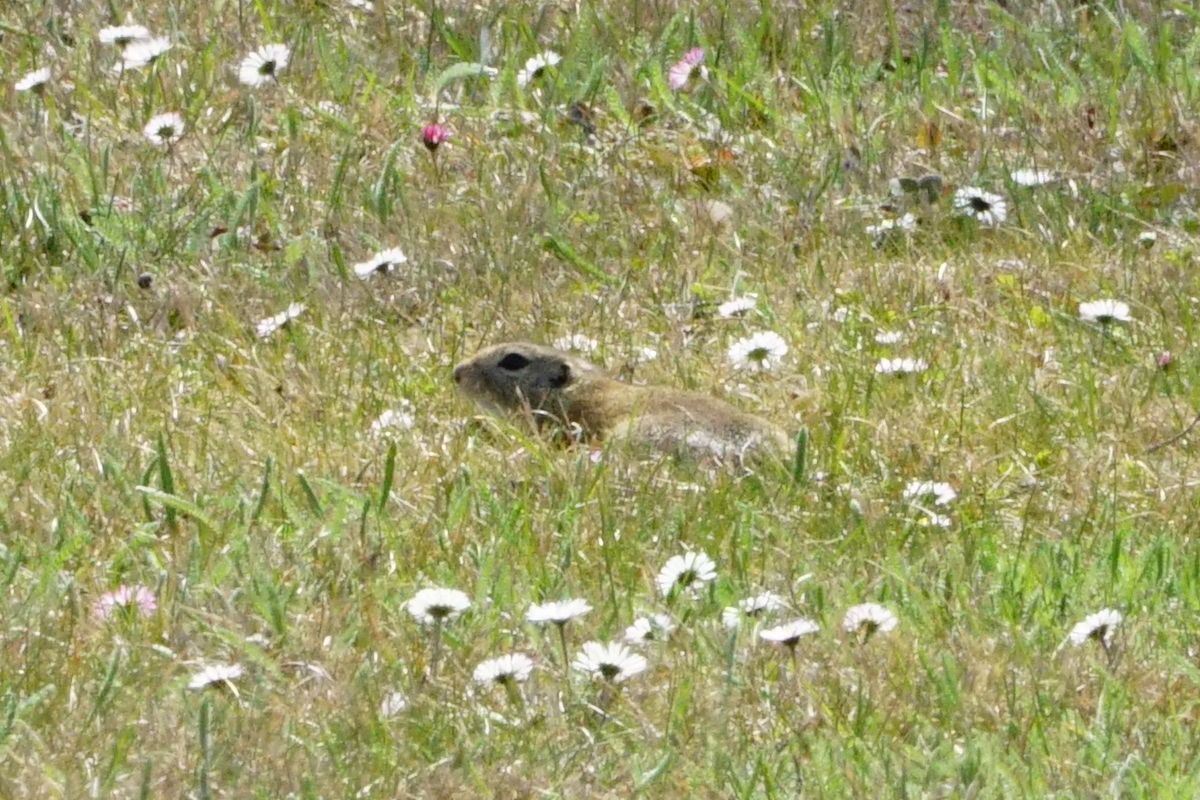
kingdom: Animalia
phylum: Chordata
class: Mammalia
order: Rodentia
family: Sciuridae
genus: Spermophilus
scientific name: Spermophilus citellus
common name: European ground squirrel
